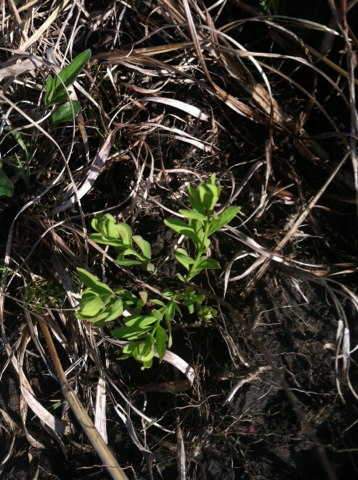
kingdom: Plantae
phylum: Tracheophyta
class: Magnoliopsida
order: Santalales
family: Comandraceae
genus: Comandra
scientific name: Comandra umbellata
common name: Bastard toadflax
